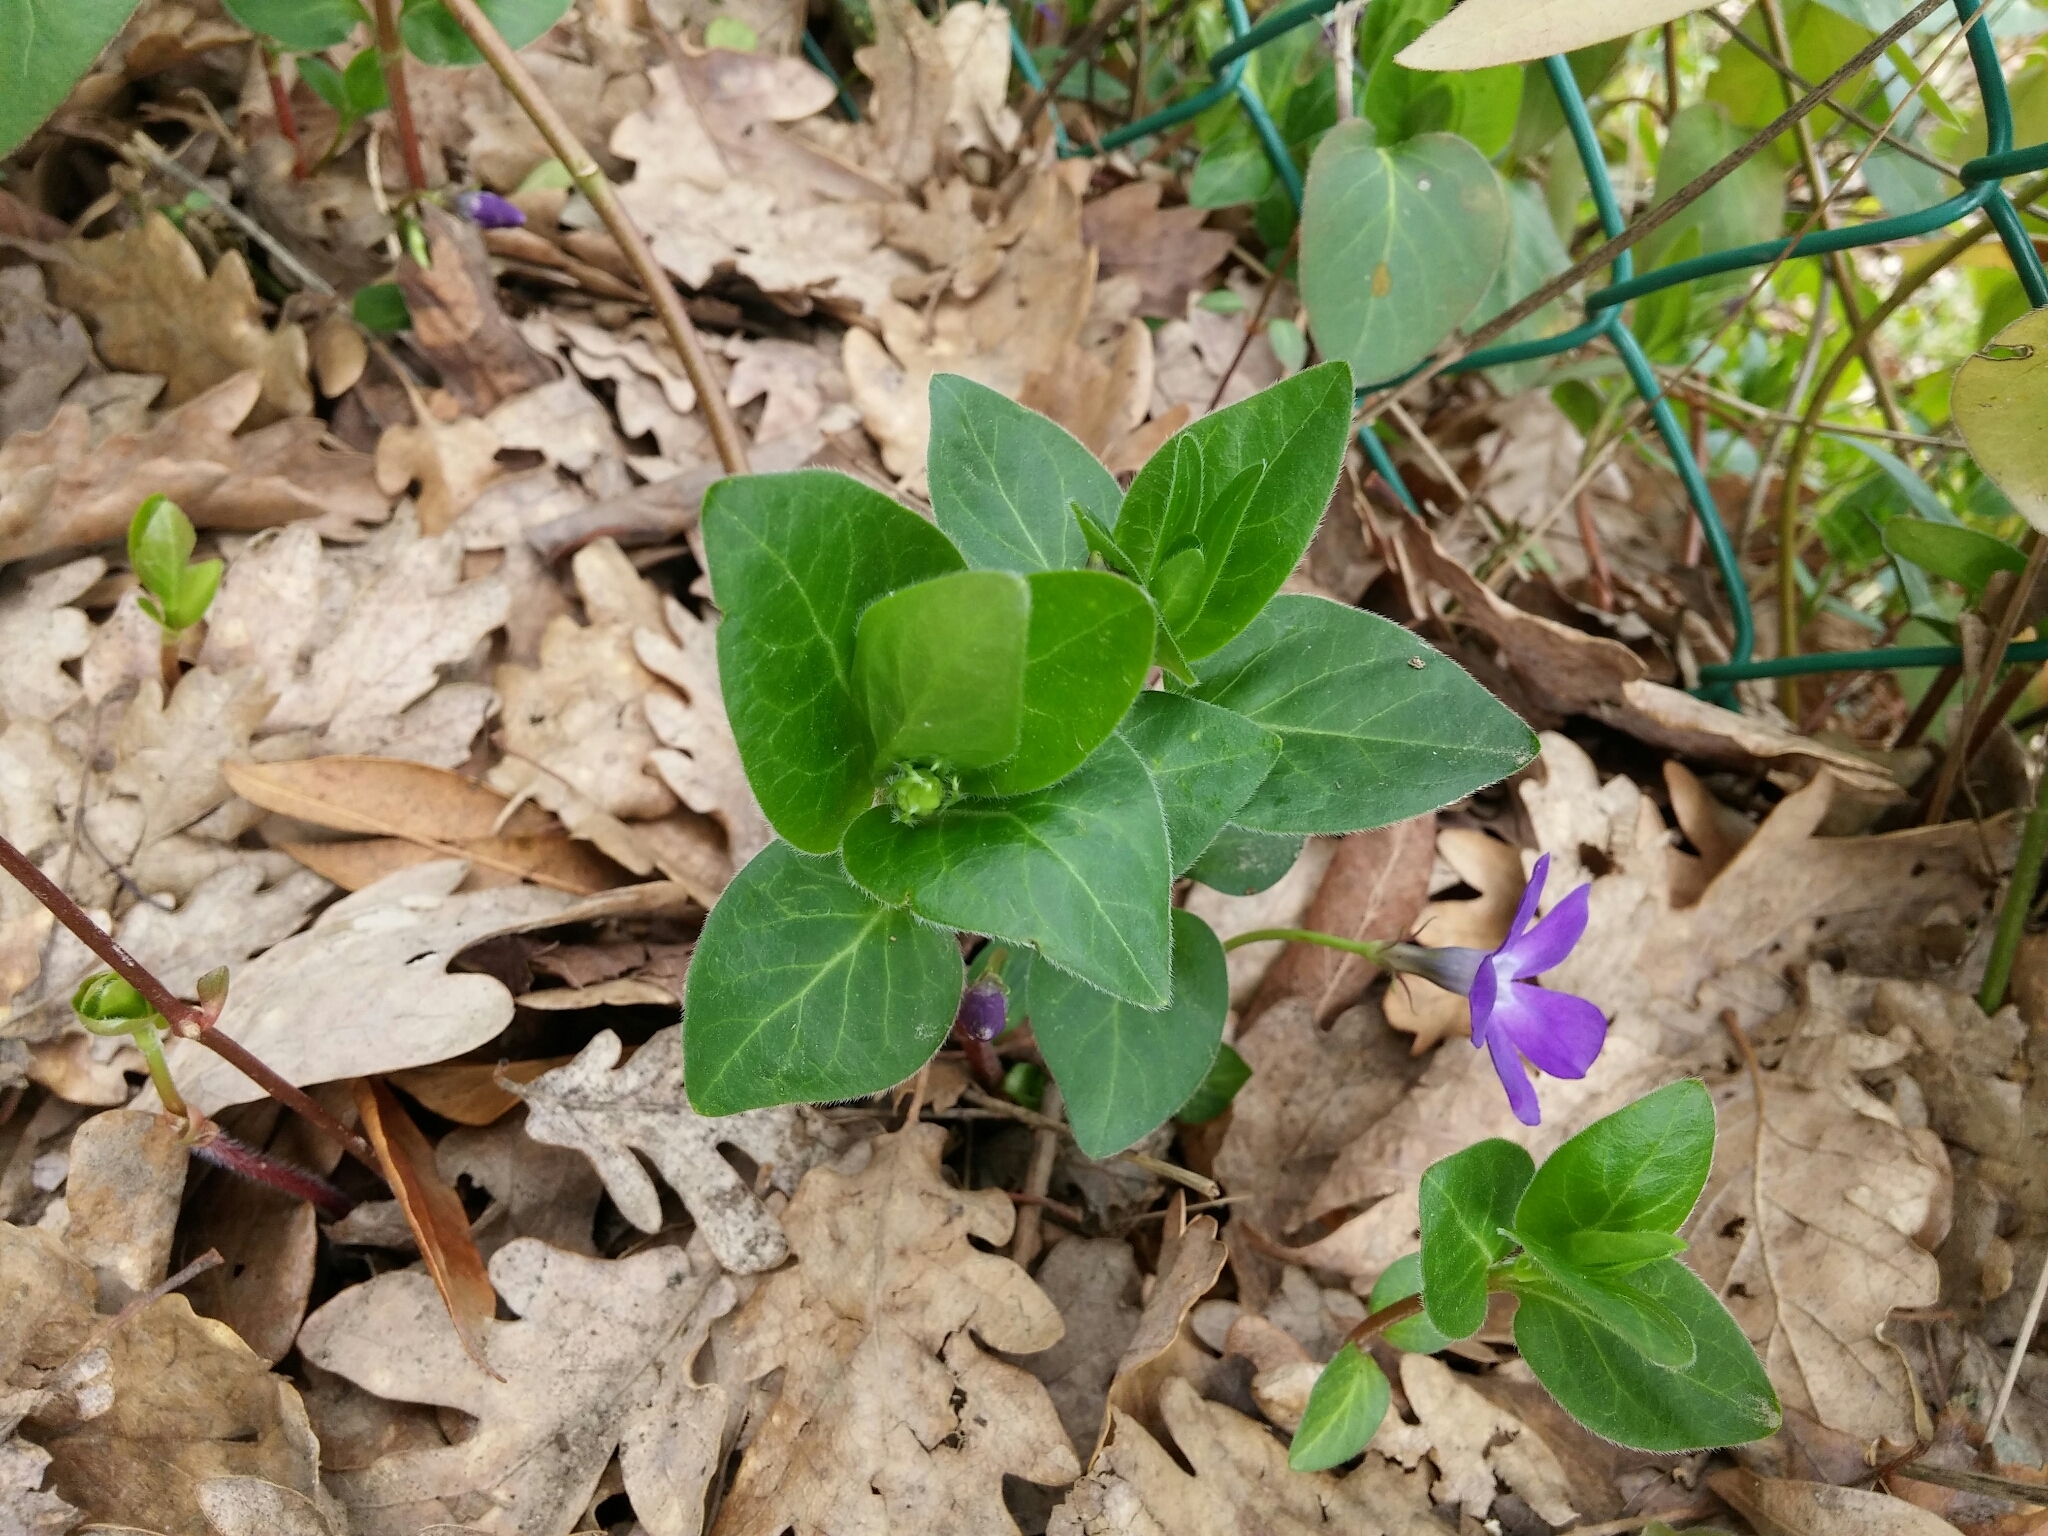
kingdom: Plantae
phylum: Tracheophyta
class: Magnoliopsida
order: Gentianales
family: Apocynaceae
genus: Vinca
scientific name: Vinca major
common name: Greater periwinkle
